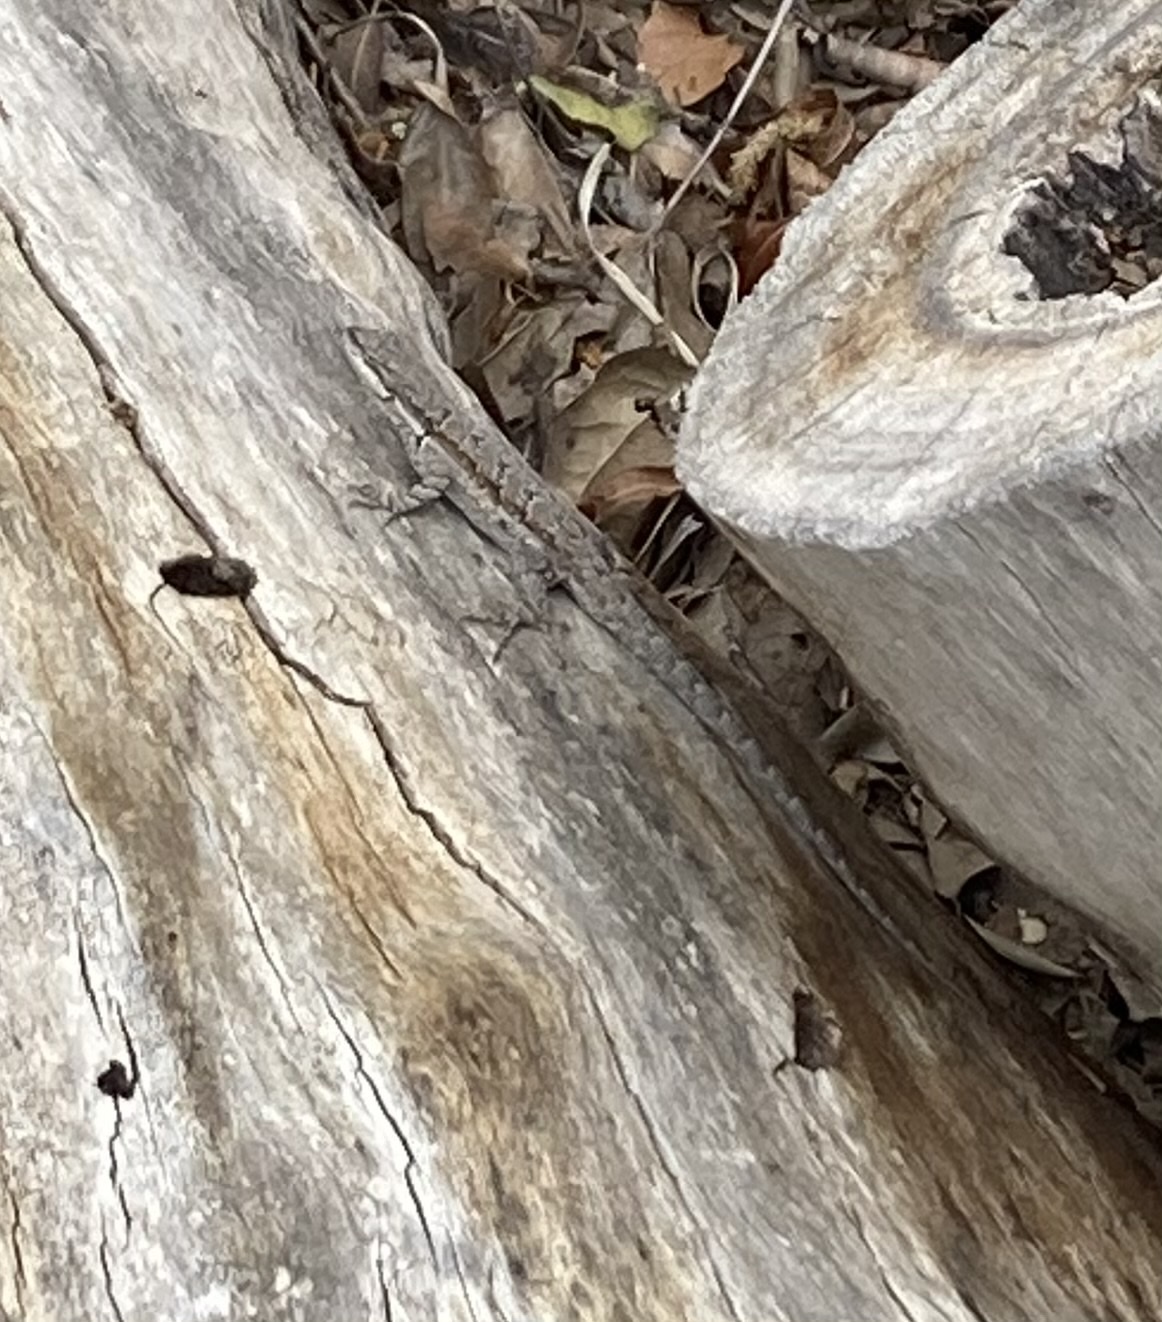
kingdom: Animalia
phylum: Chordata
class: Squamata
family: Phrynosomatidae
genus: Urosaurus
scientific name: Urosaurus ornatus
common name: Ornate tree lizard
